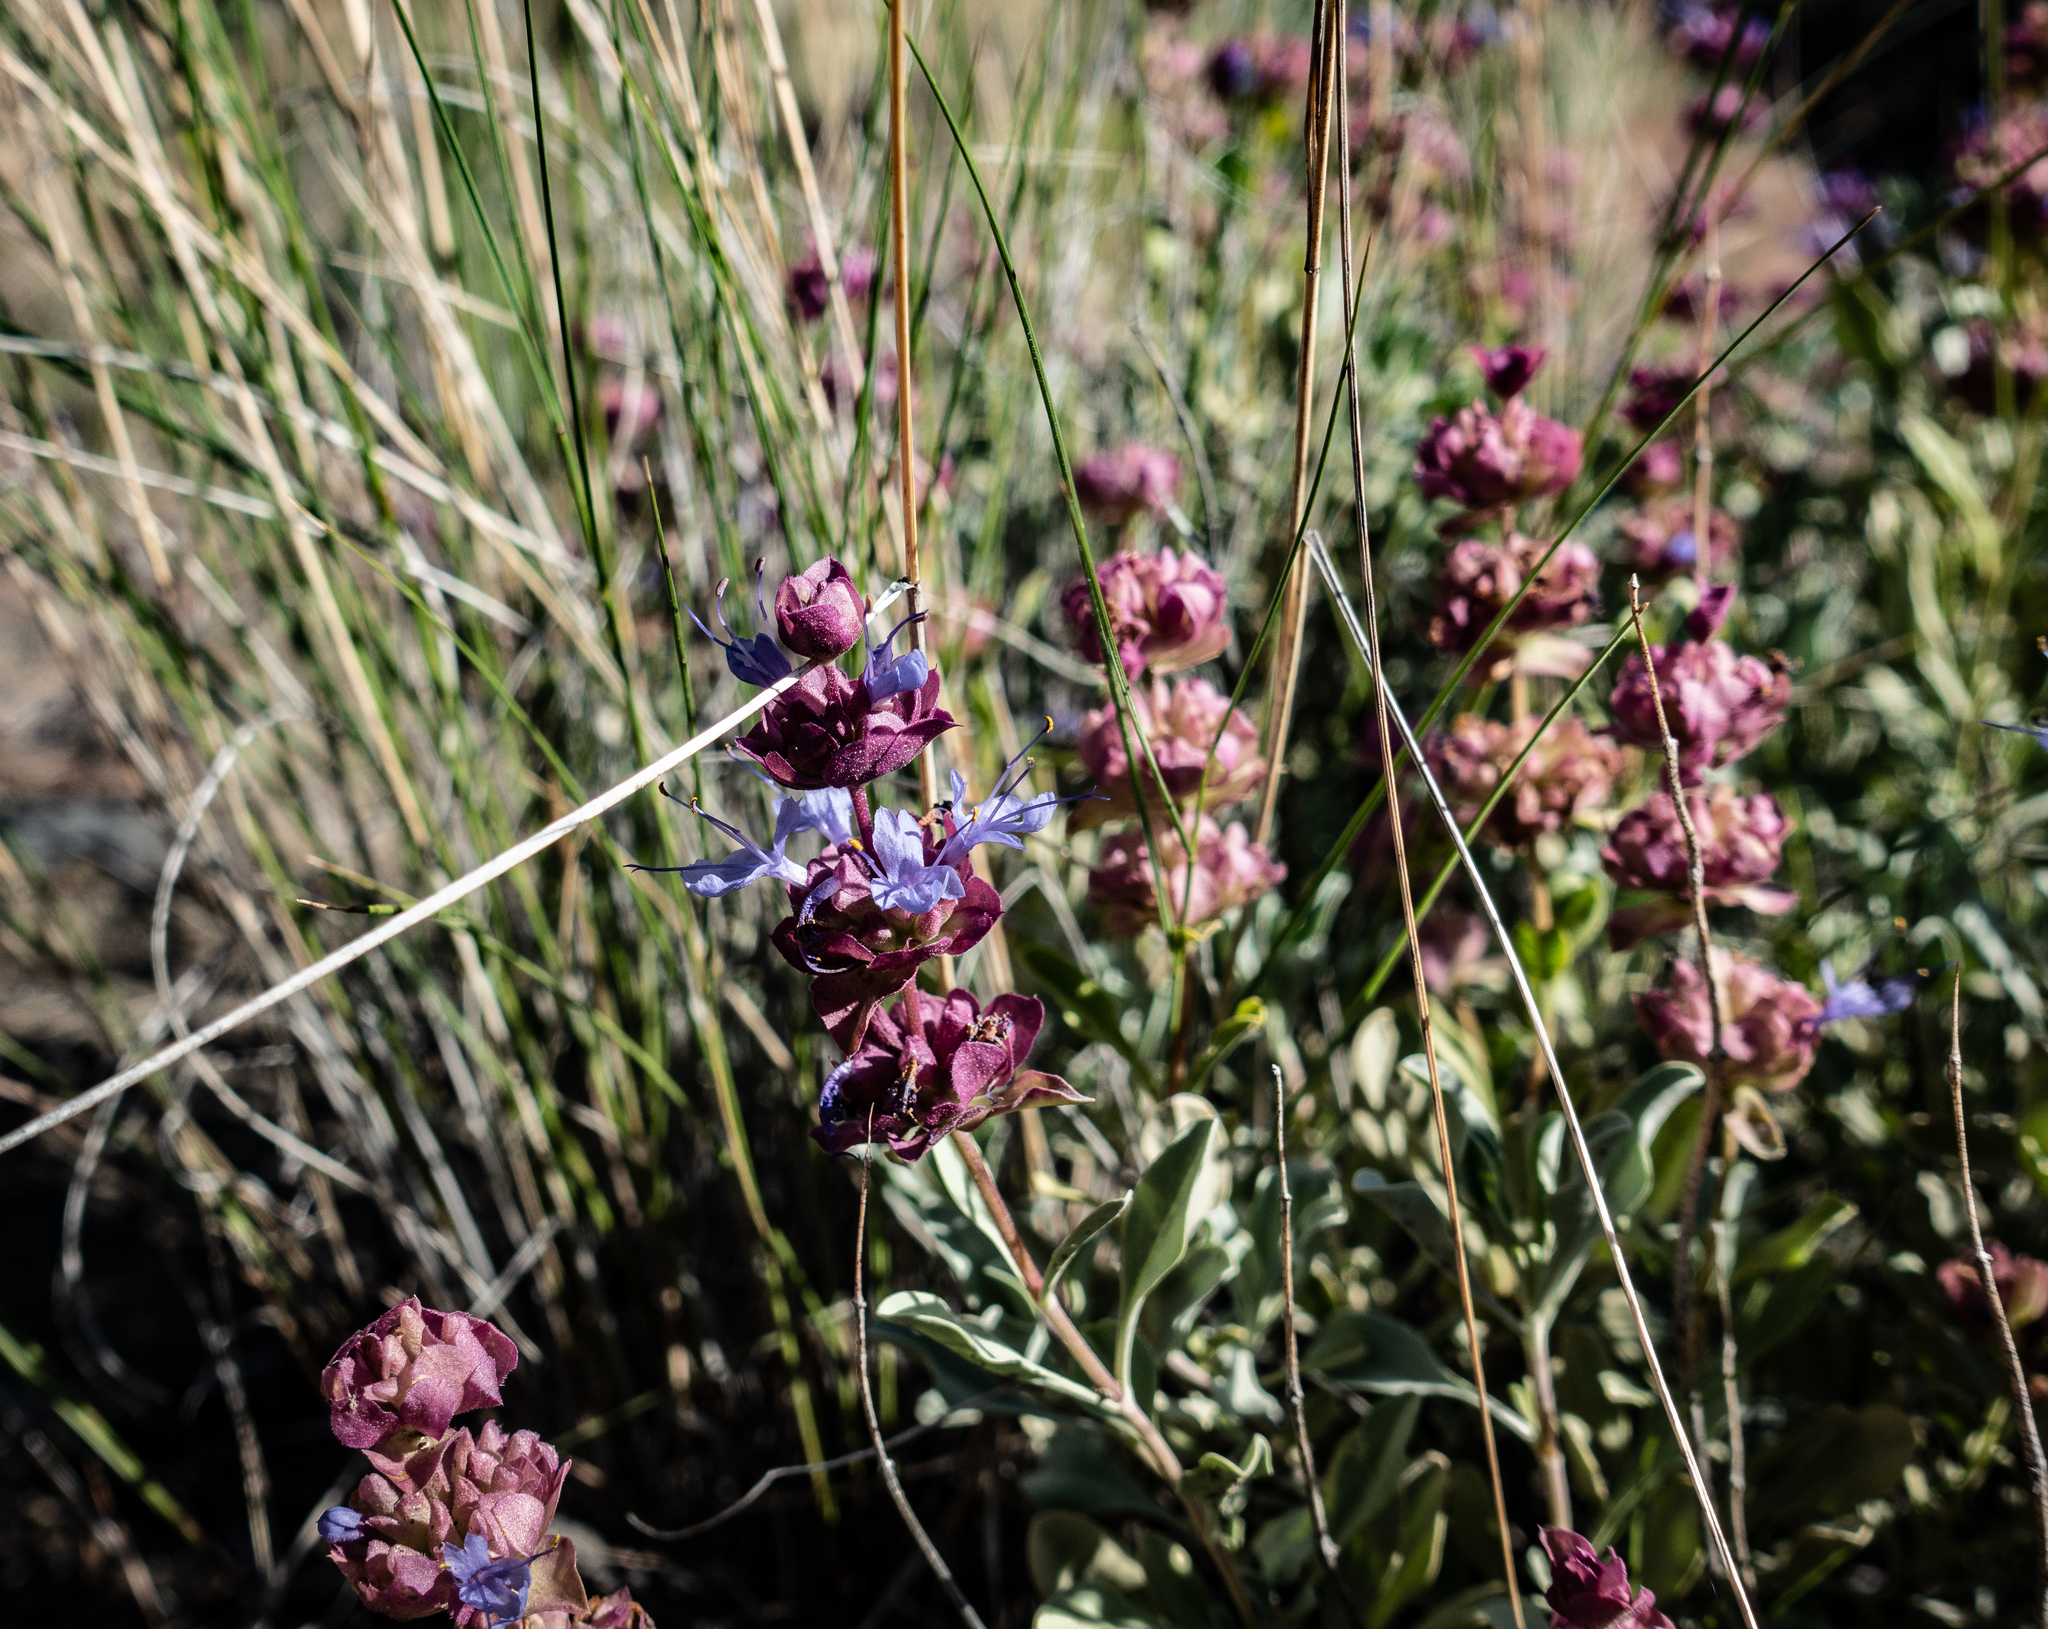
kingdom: Plantae
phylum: Tracheophyta
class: Magnoliopsida
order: Lamiales
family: Lamiaceae
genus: Salvia
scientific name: Salvia dorrii
